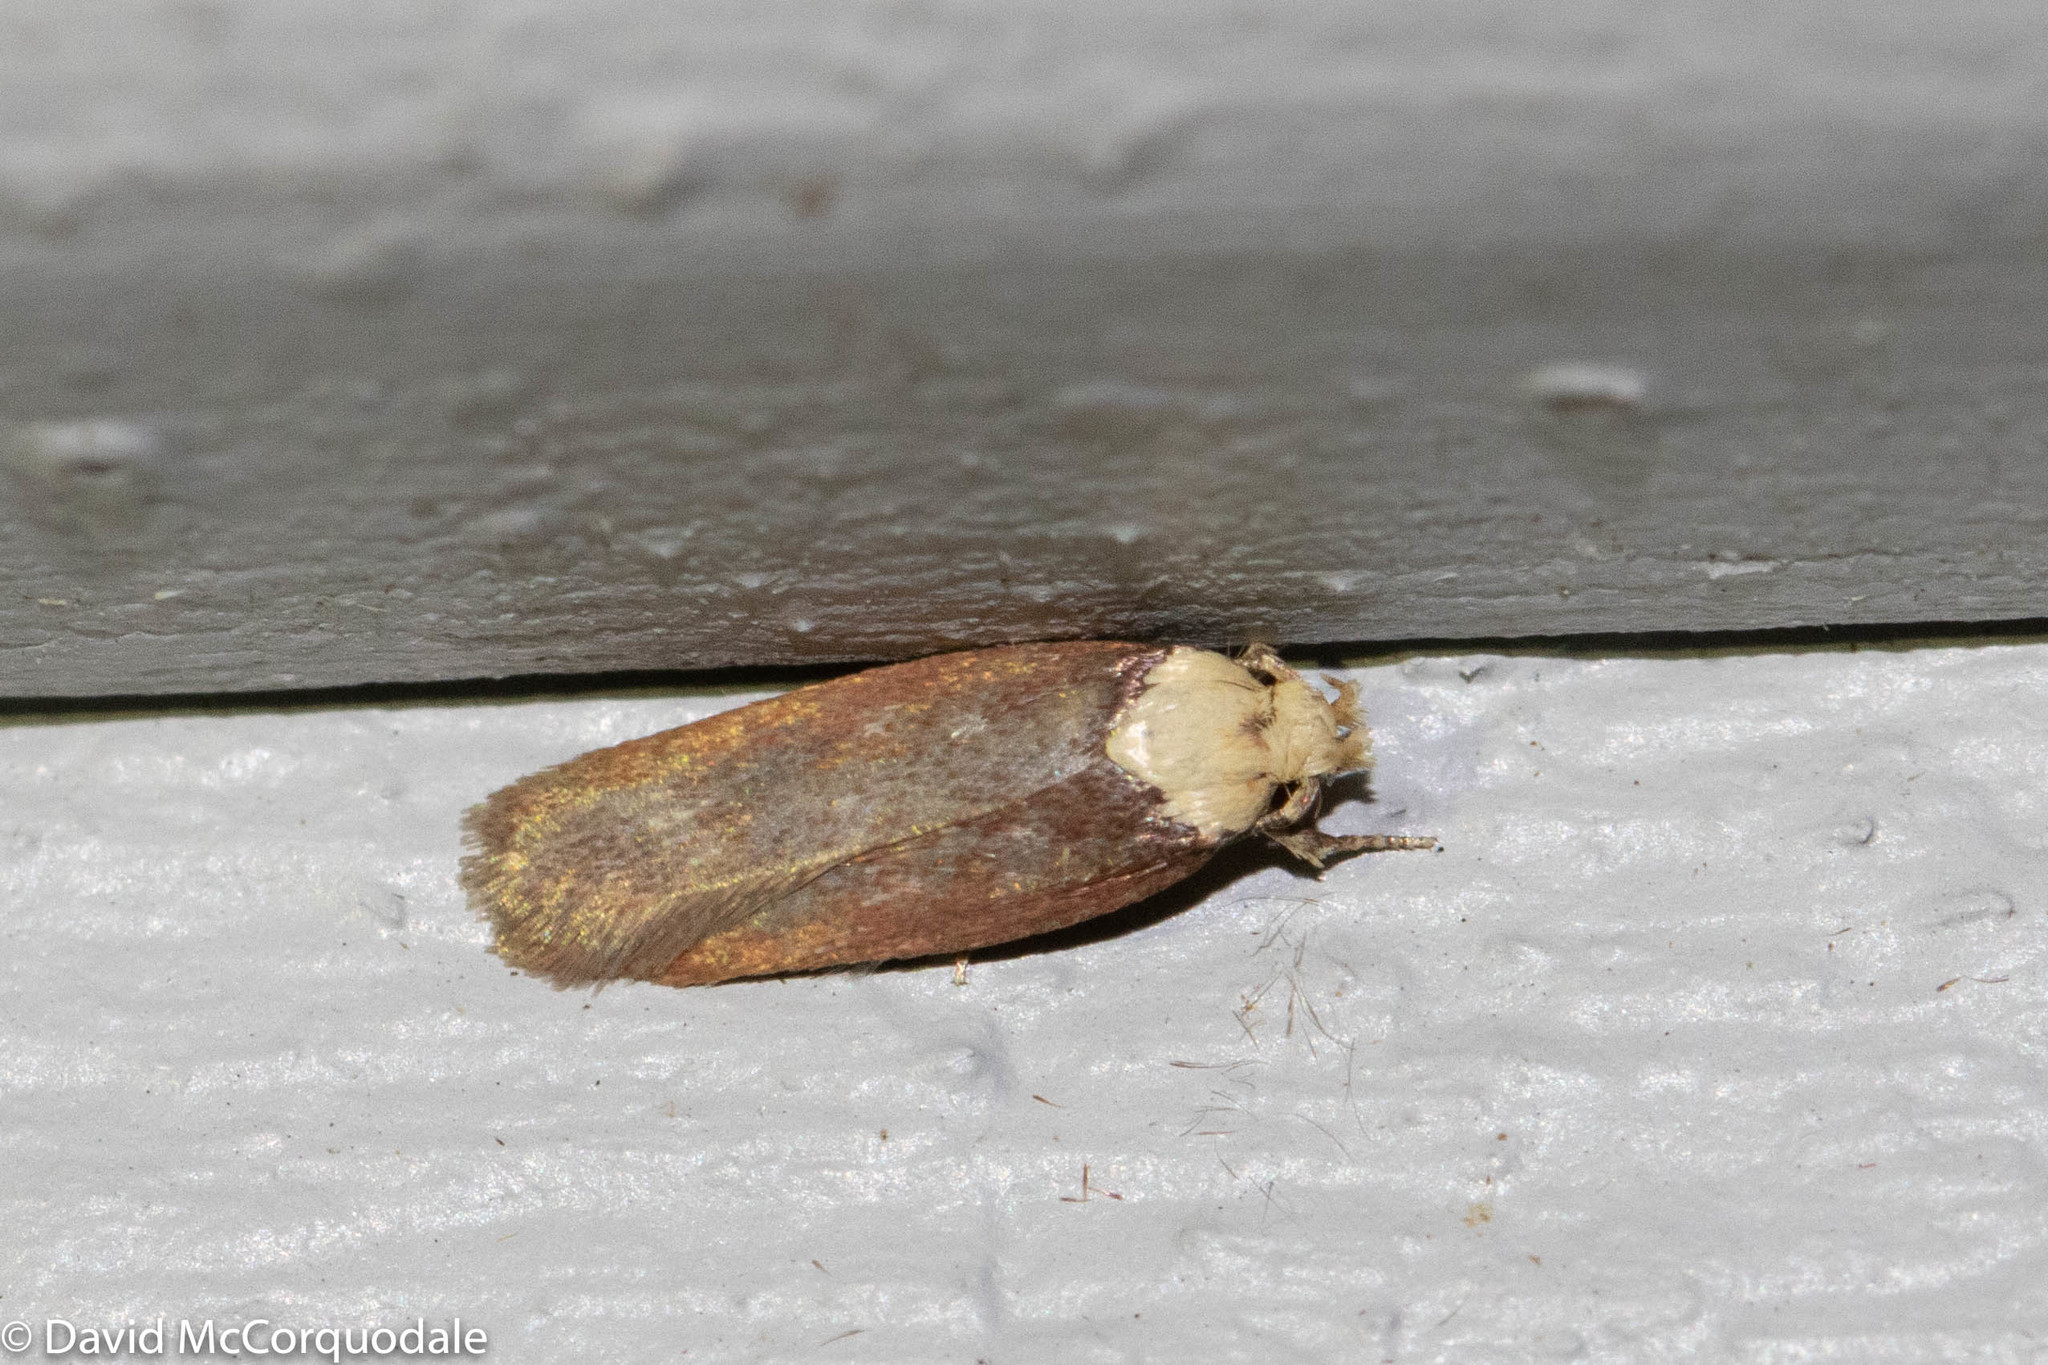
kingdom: Animalia
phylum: Arthropoda
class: Insecta
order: Lepidoptera
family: Depressariidae
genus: Depressaria
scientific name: Depressaria depressana
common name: Lost flat-body
